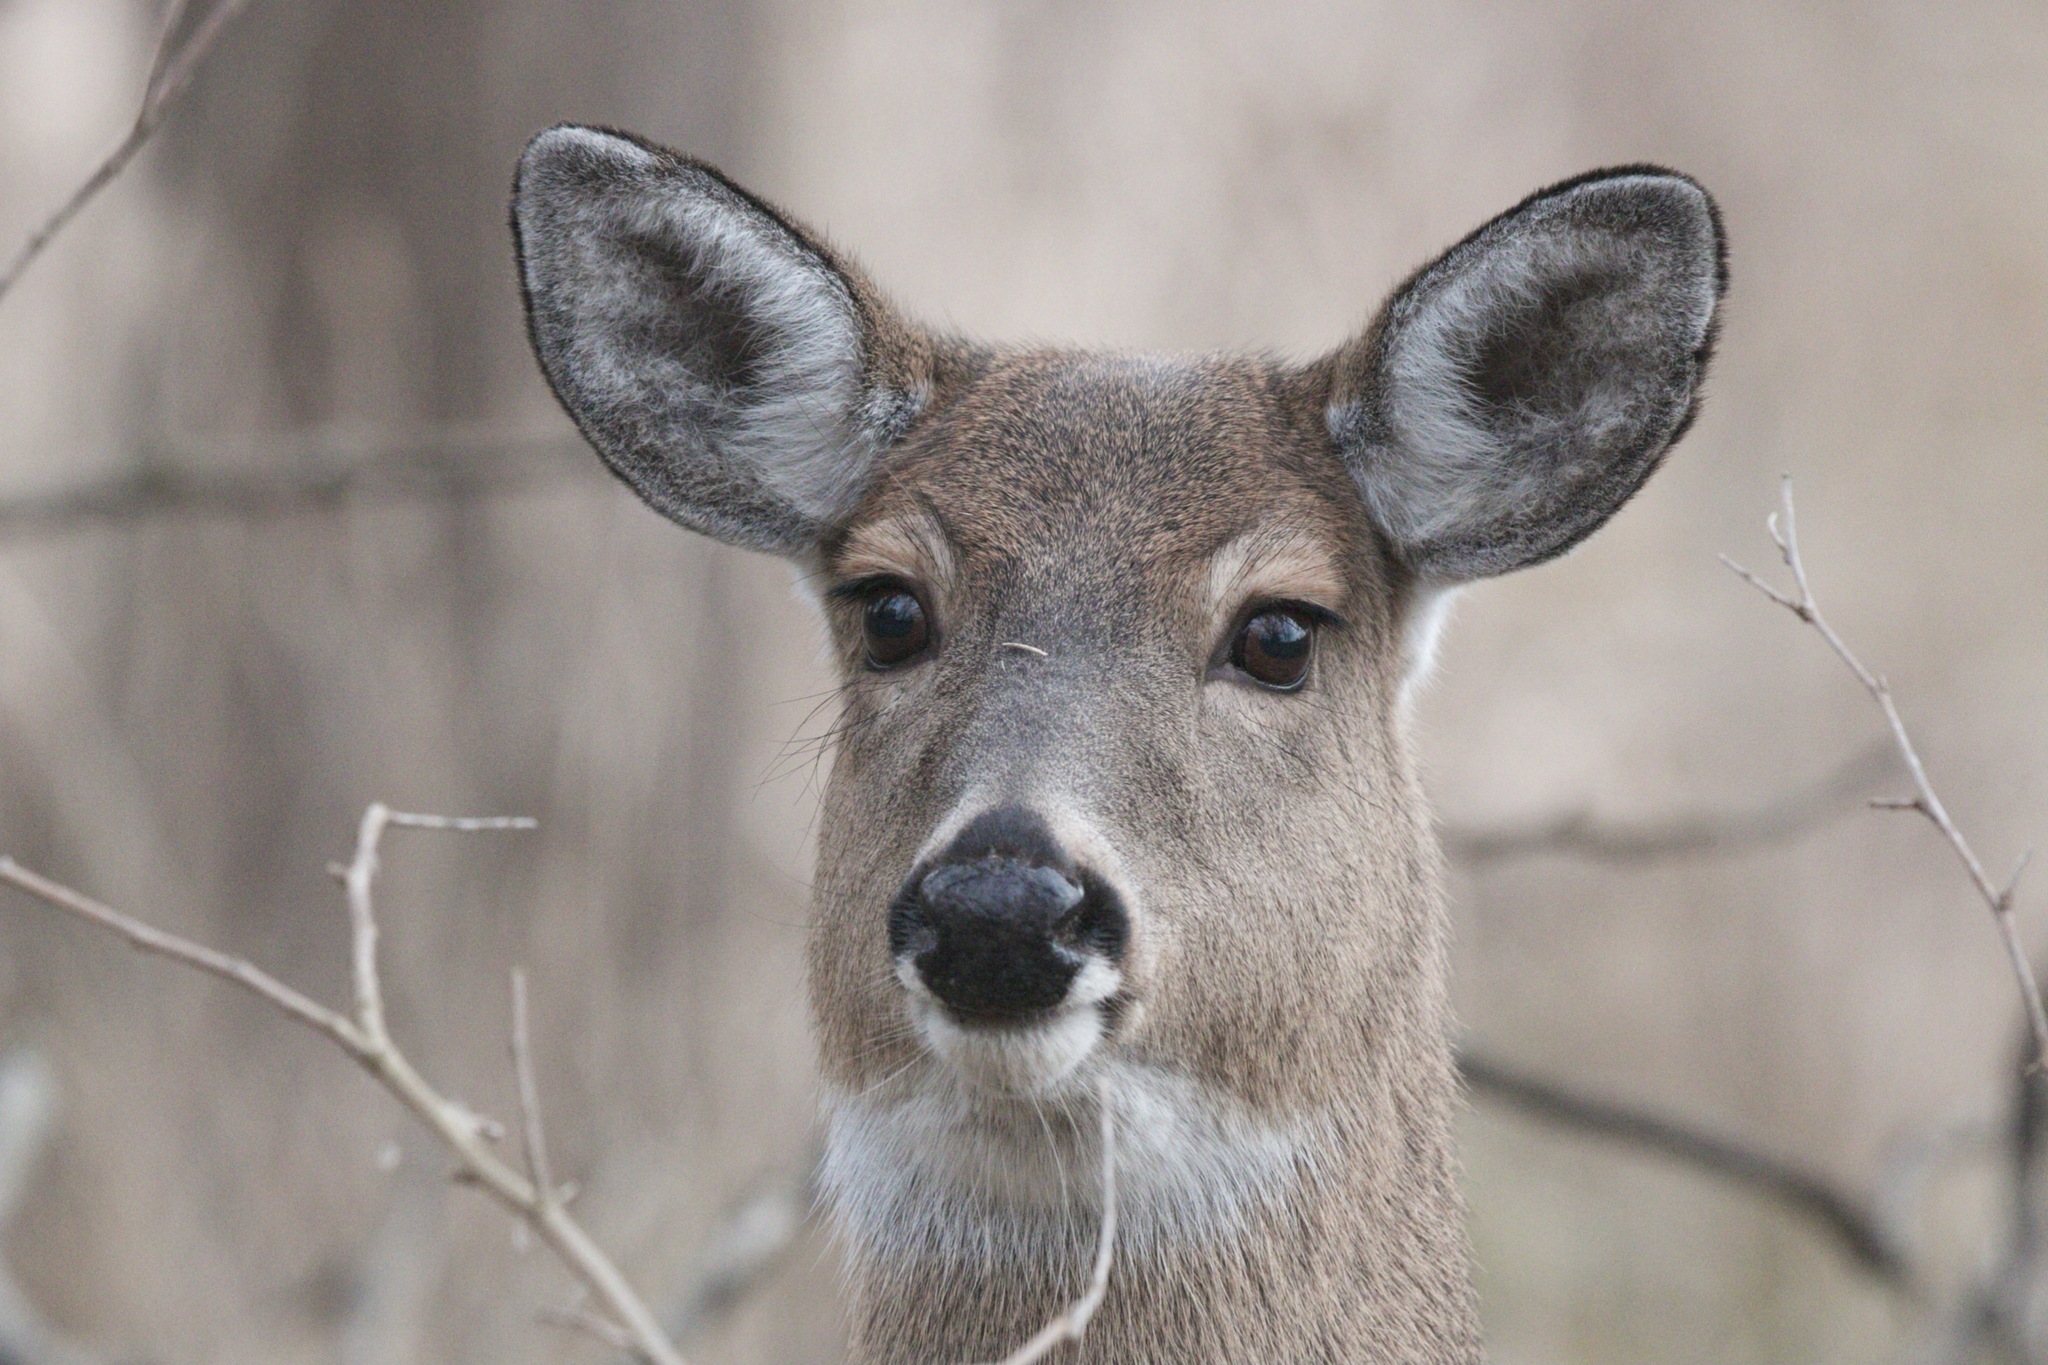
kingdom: Animalia
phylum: Chordata
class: Mammalia
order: Artiodactyla
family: Cervidae
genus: Odocoileus
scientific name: Odocoileus virginianus
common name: White-tailed deer
